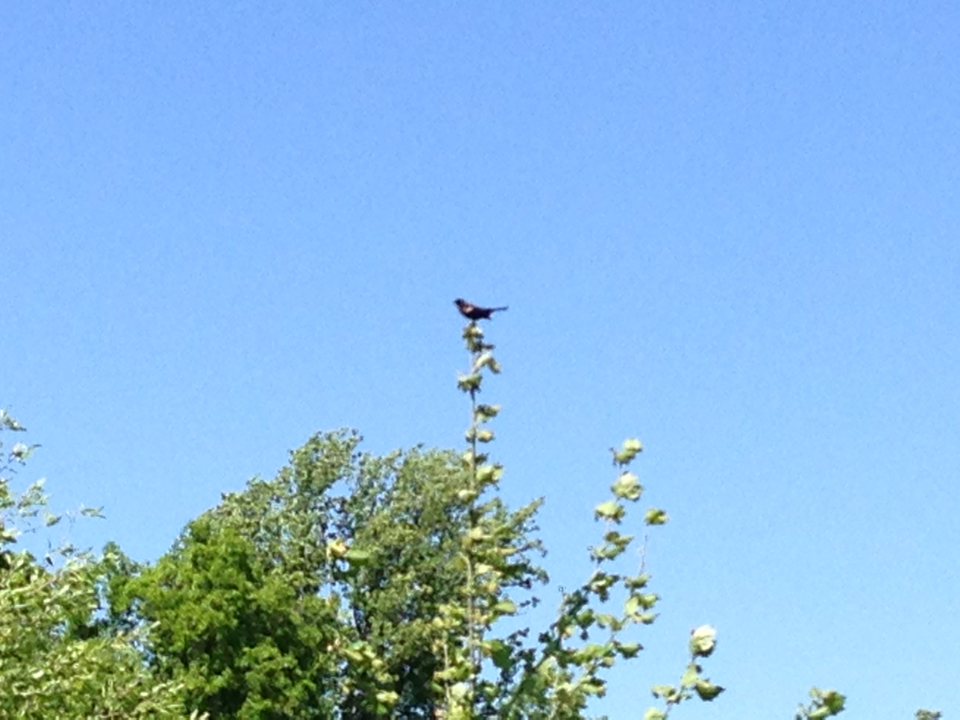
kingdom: Animalia
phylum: Chordata
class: Aves
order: Passeriformes
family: Icteridae
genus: Agelaius
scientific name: Agelaius phoeniceus
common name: Red-winged blackbird
